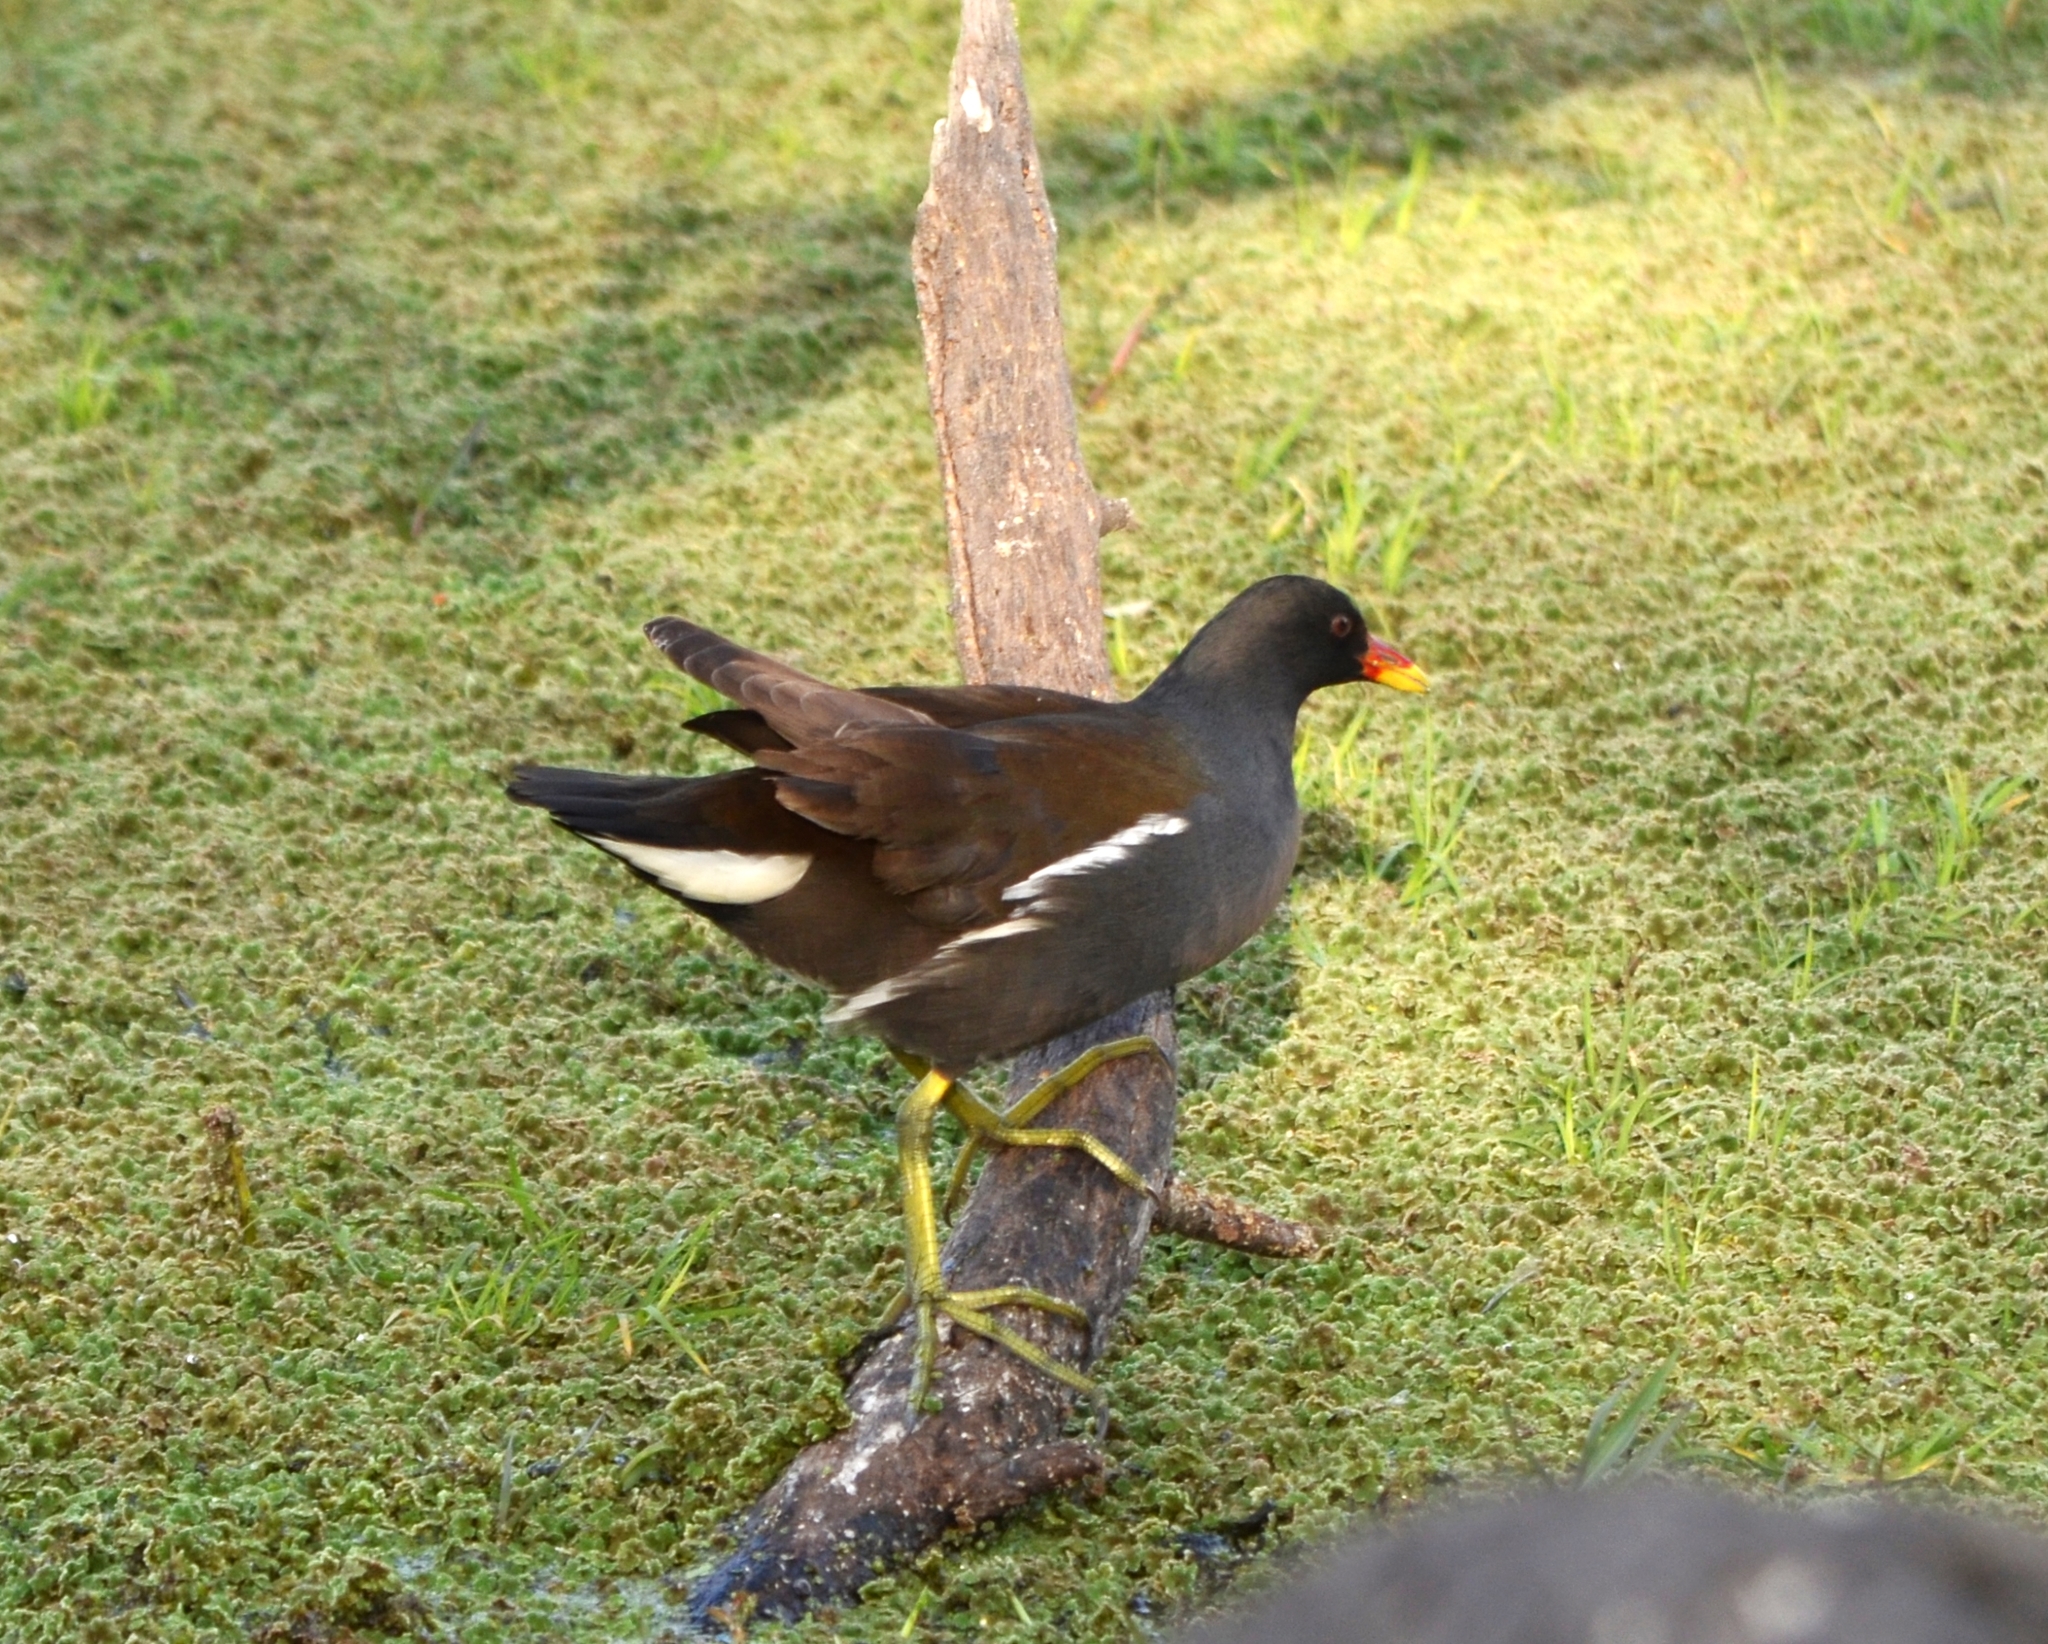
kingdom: Animalia
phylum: Chordata
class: Aves
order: Gruiformes
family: Rallidae
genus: Gallinula
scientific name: Gallinula chloropus
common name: Common moorhen
